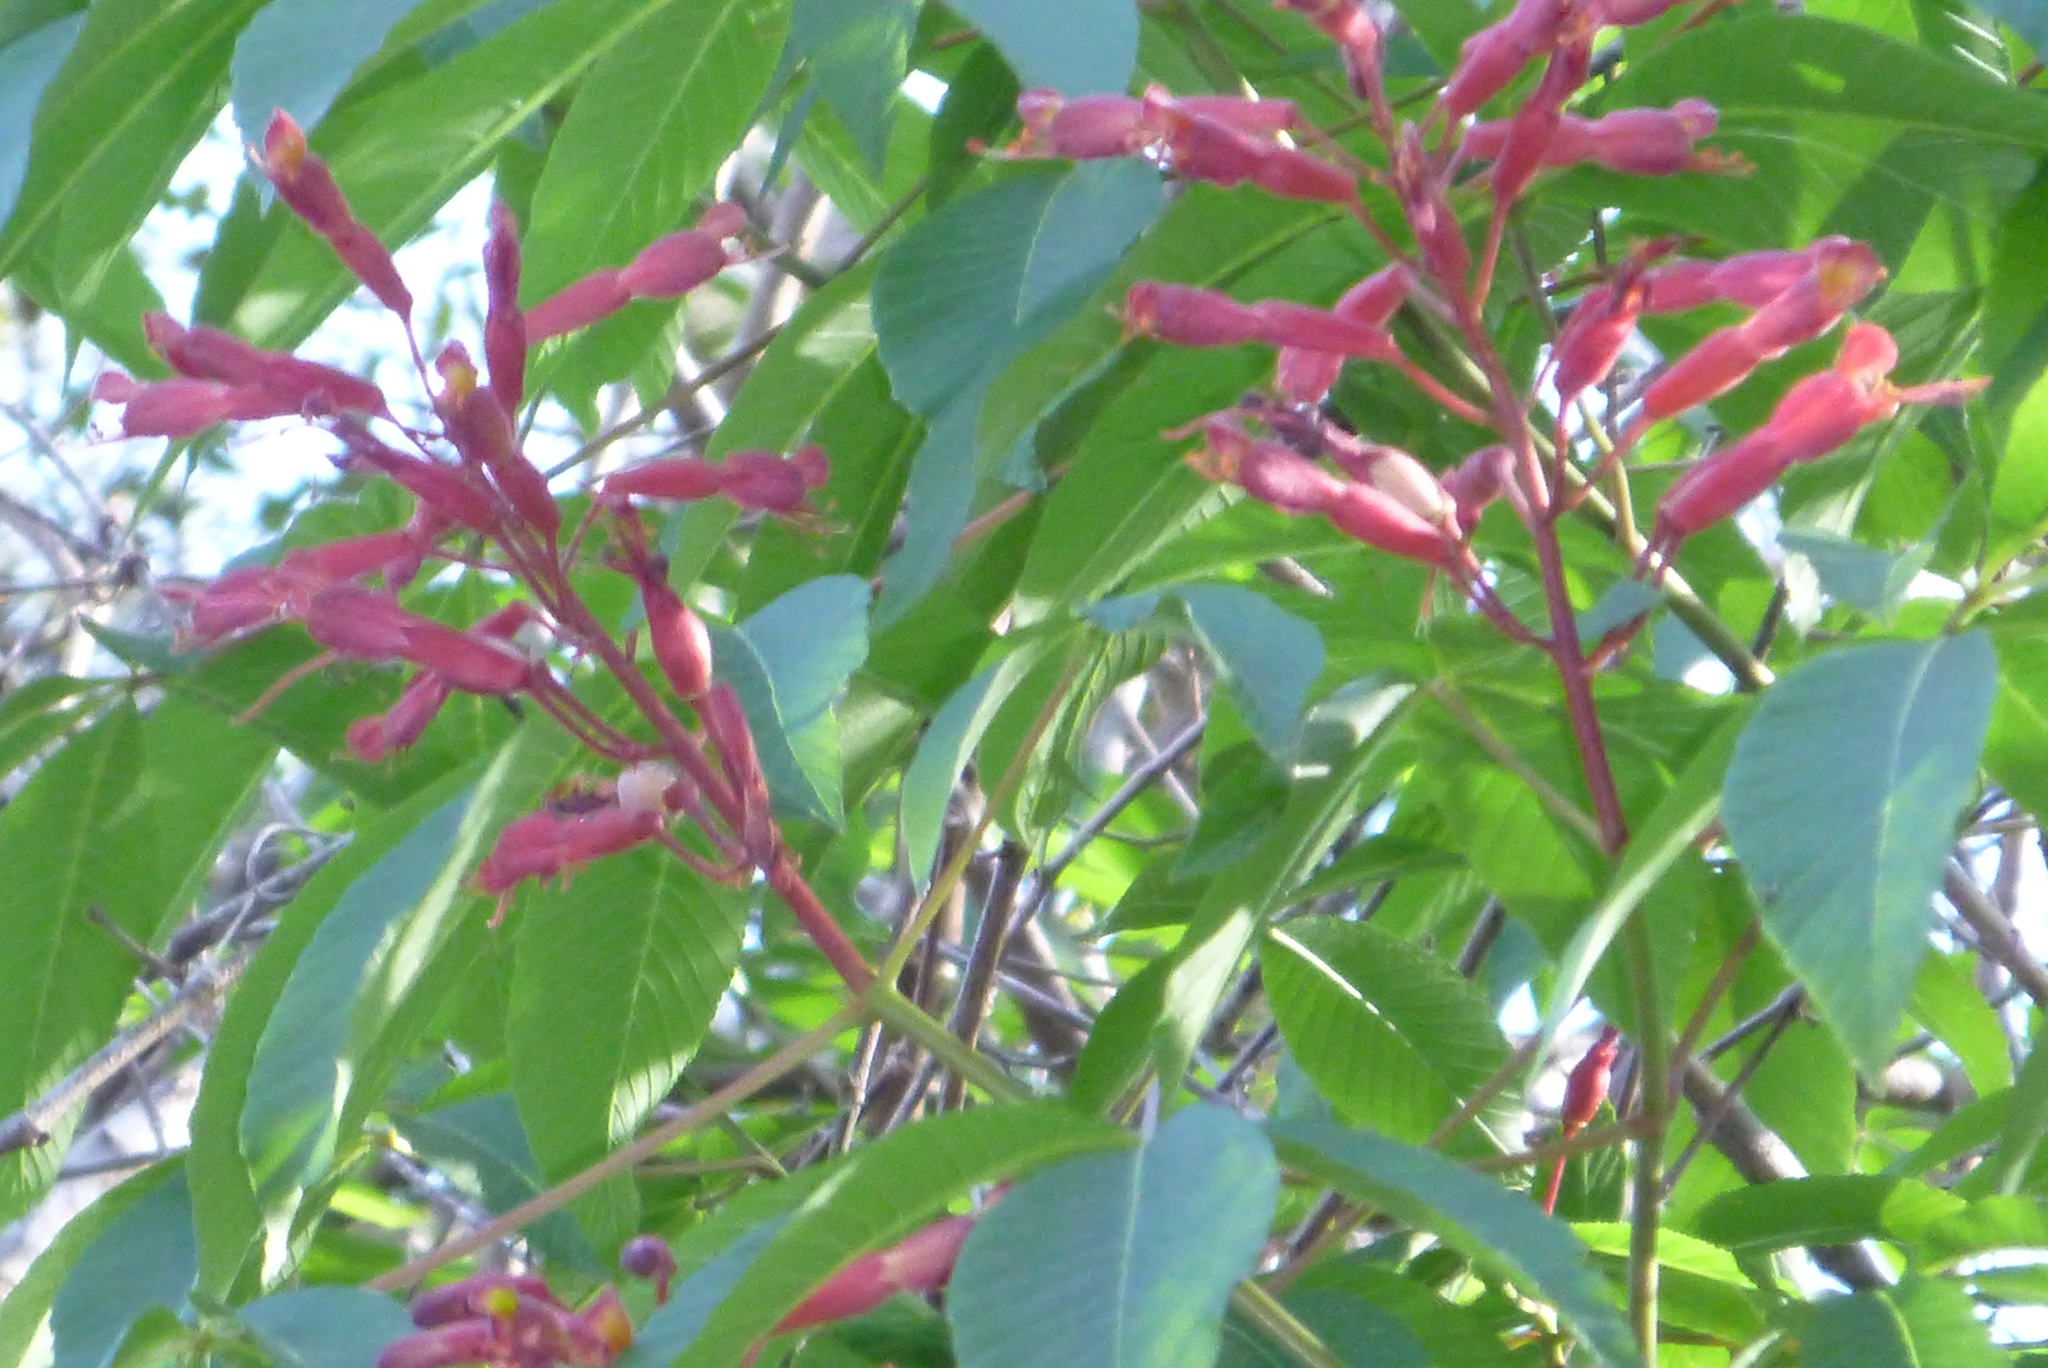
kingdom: Plantae
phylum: Tracheophyta
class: Magnoliopsida
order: Sapindales
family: Sapindaceae
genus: Aesculus
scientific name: Aesculus pavia
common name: Red buckeye
